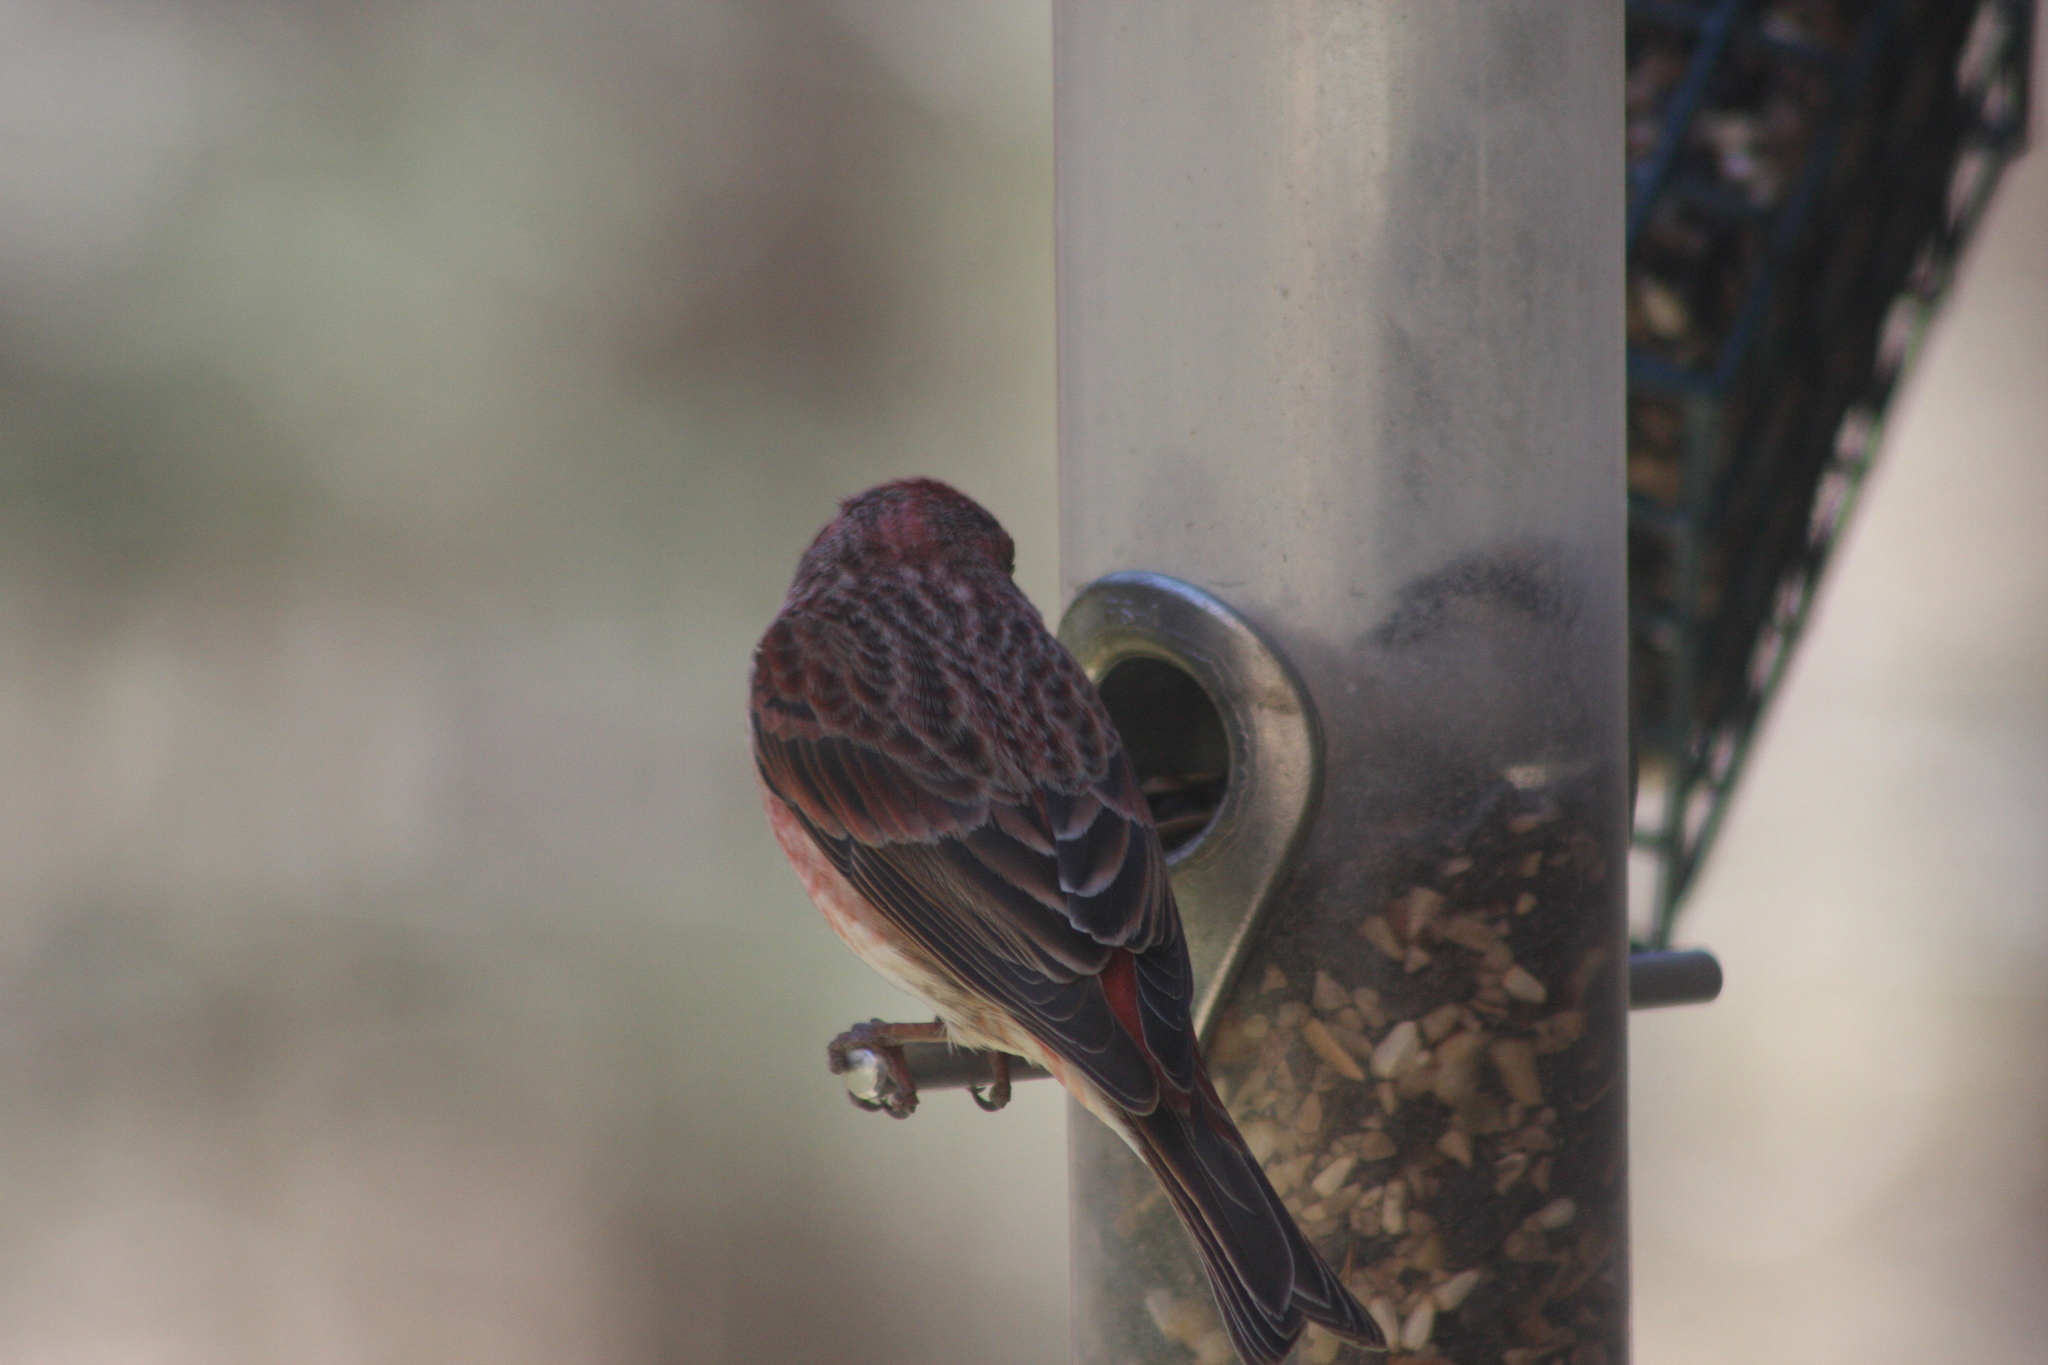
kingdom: Animalia
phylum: Chordata
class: Aves
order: Passeriformes
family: Fringillidae
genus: Haemorhous
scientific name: Haemorhous purpureus
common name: Purple finch
